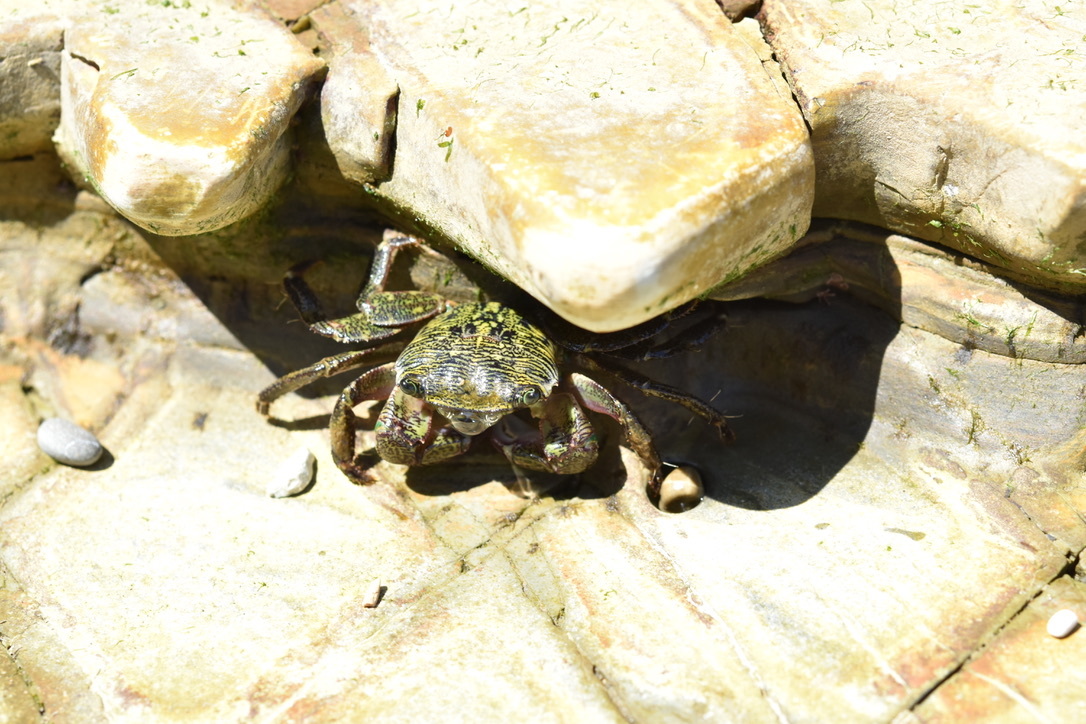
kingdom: Animalia
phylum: Arthropoda
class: Malacostraca
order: Decapoda
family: Grapsidae
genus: Pachygrapsus
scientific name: Pachygrapsus crassipes
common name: Striped shore crab
